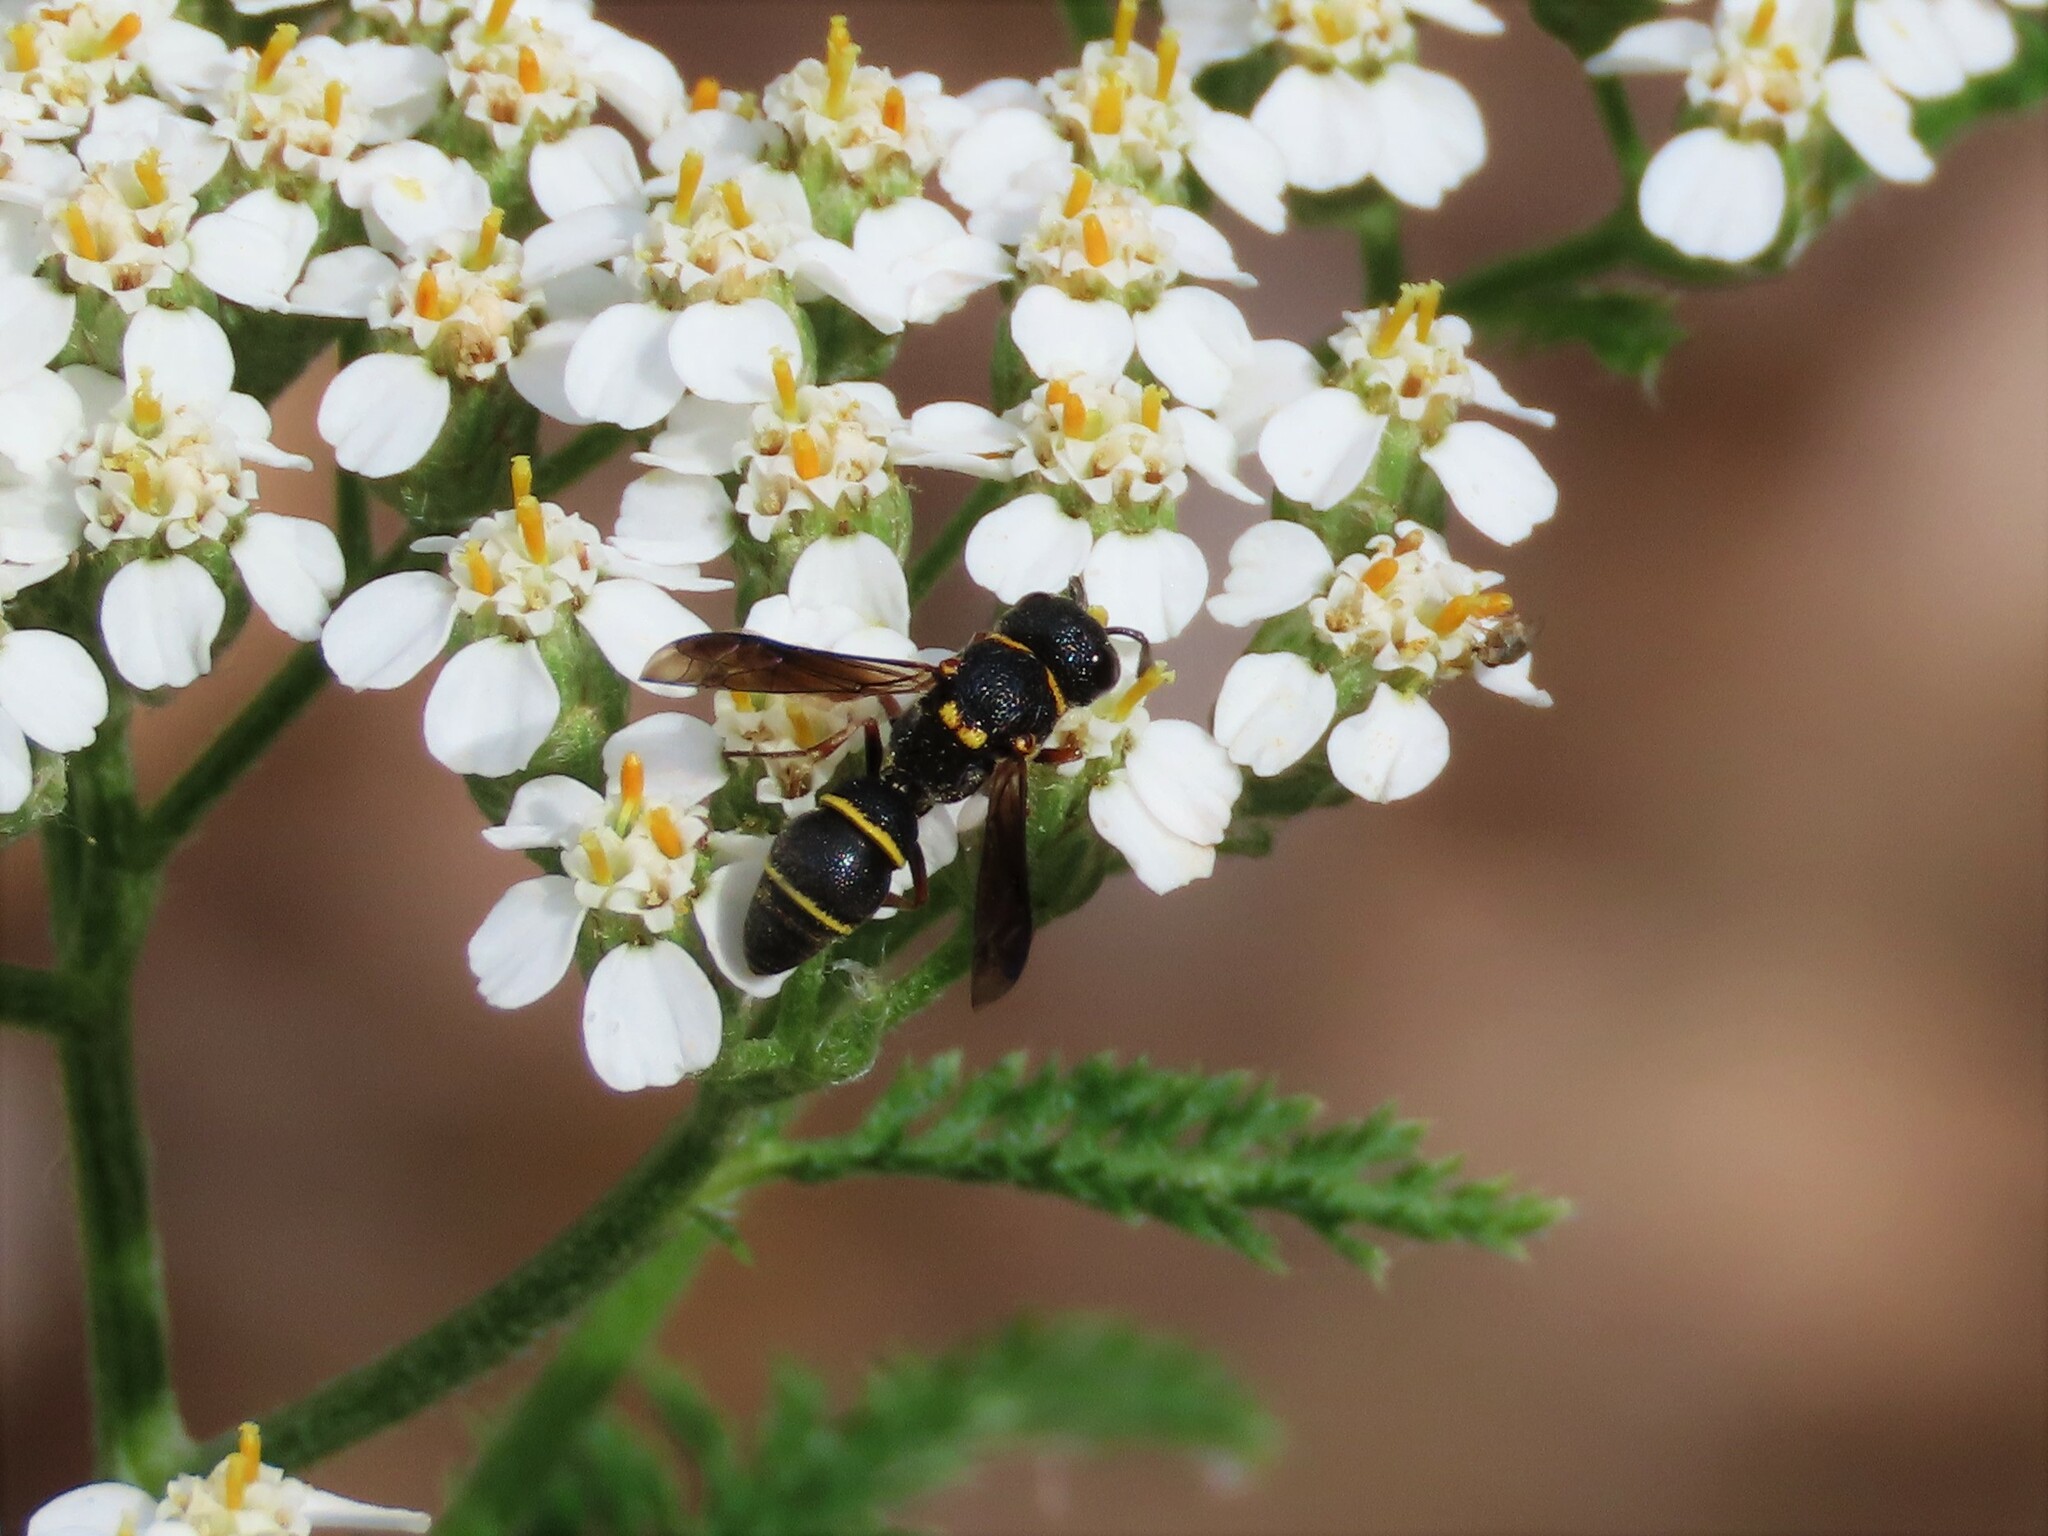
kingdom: Animalia
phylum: Arthropoda
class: Insecta
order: Hymenoptera
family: Eumenidae
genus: Cyrtolabulus
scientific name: Cyrtolabulus mutinensis
